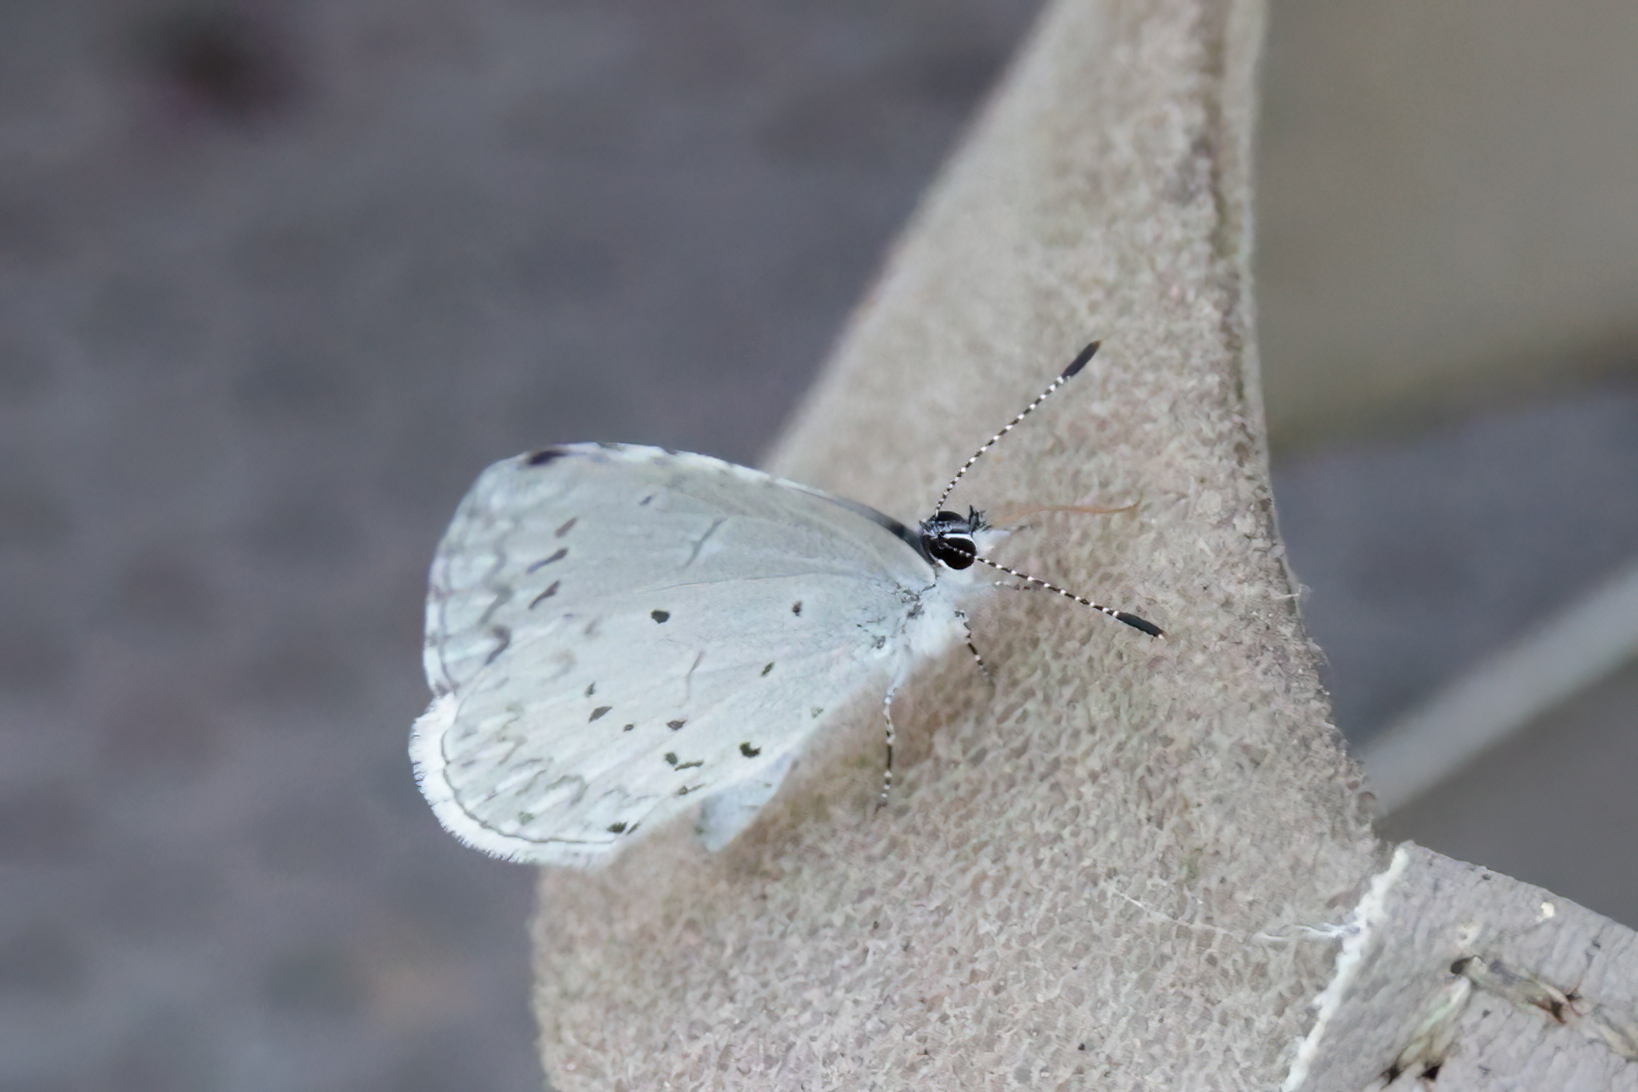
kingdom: Animalia
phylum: Arthropoda
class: Insecta
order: Lepidoptera
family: Lycaenidae
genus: Cyaniris
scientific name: Cyaniris neglecta
